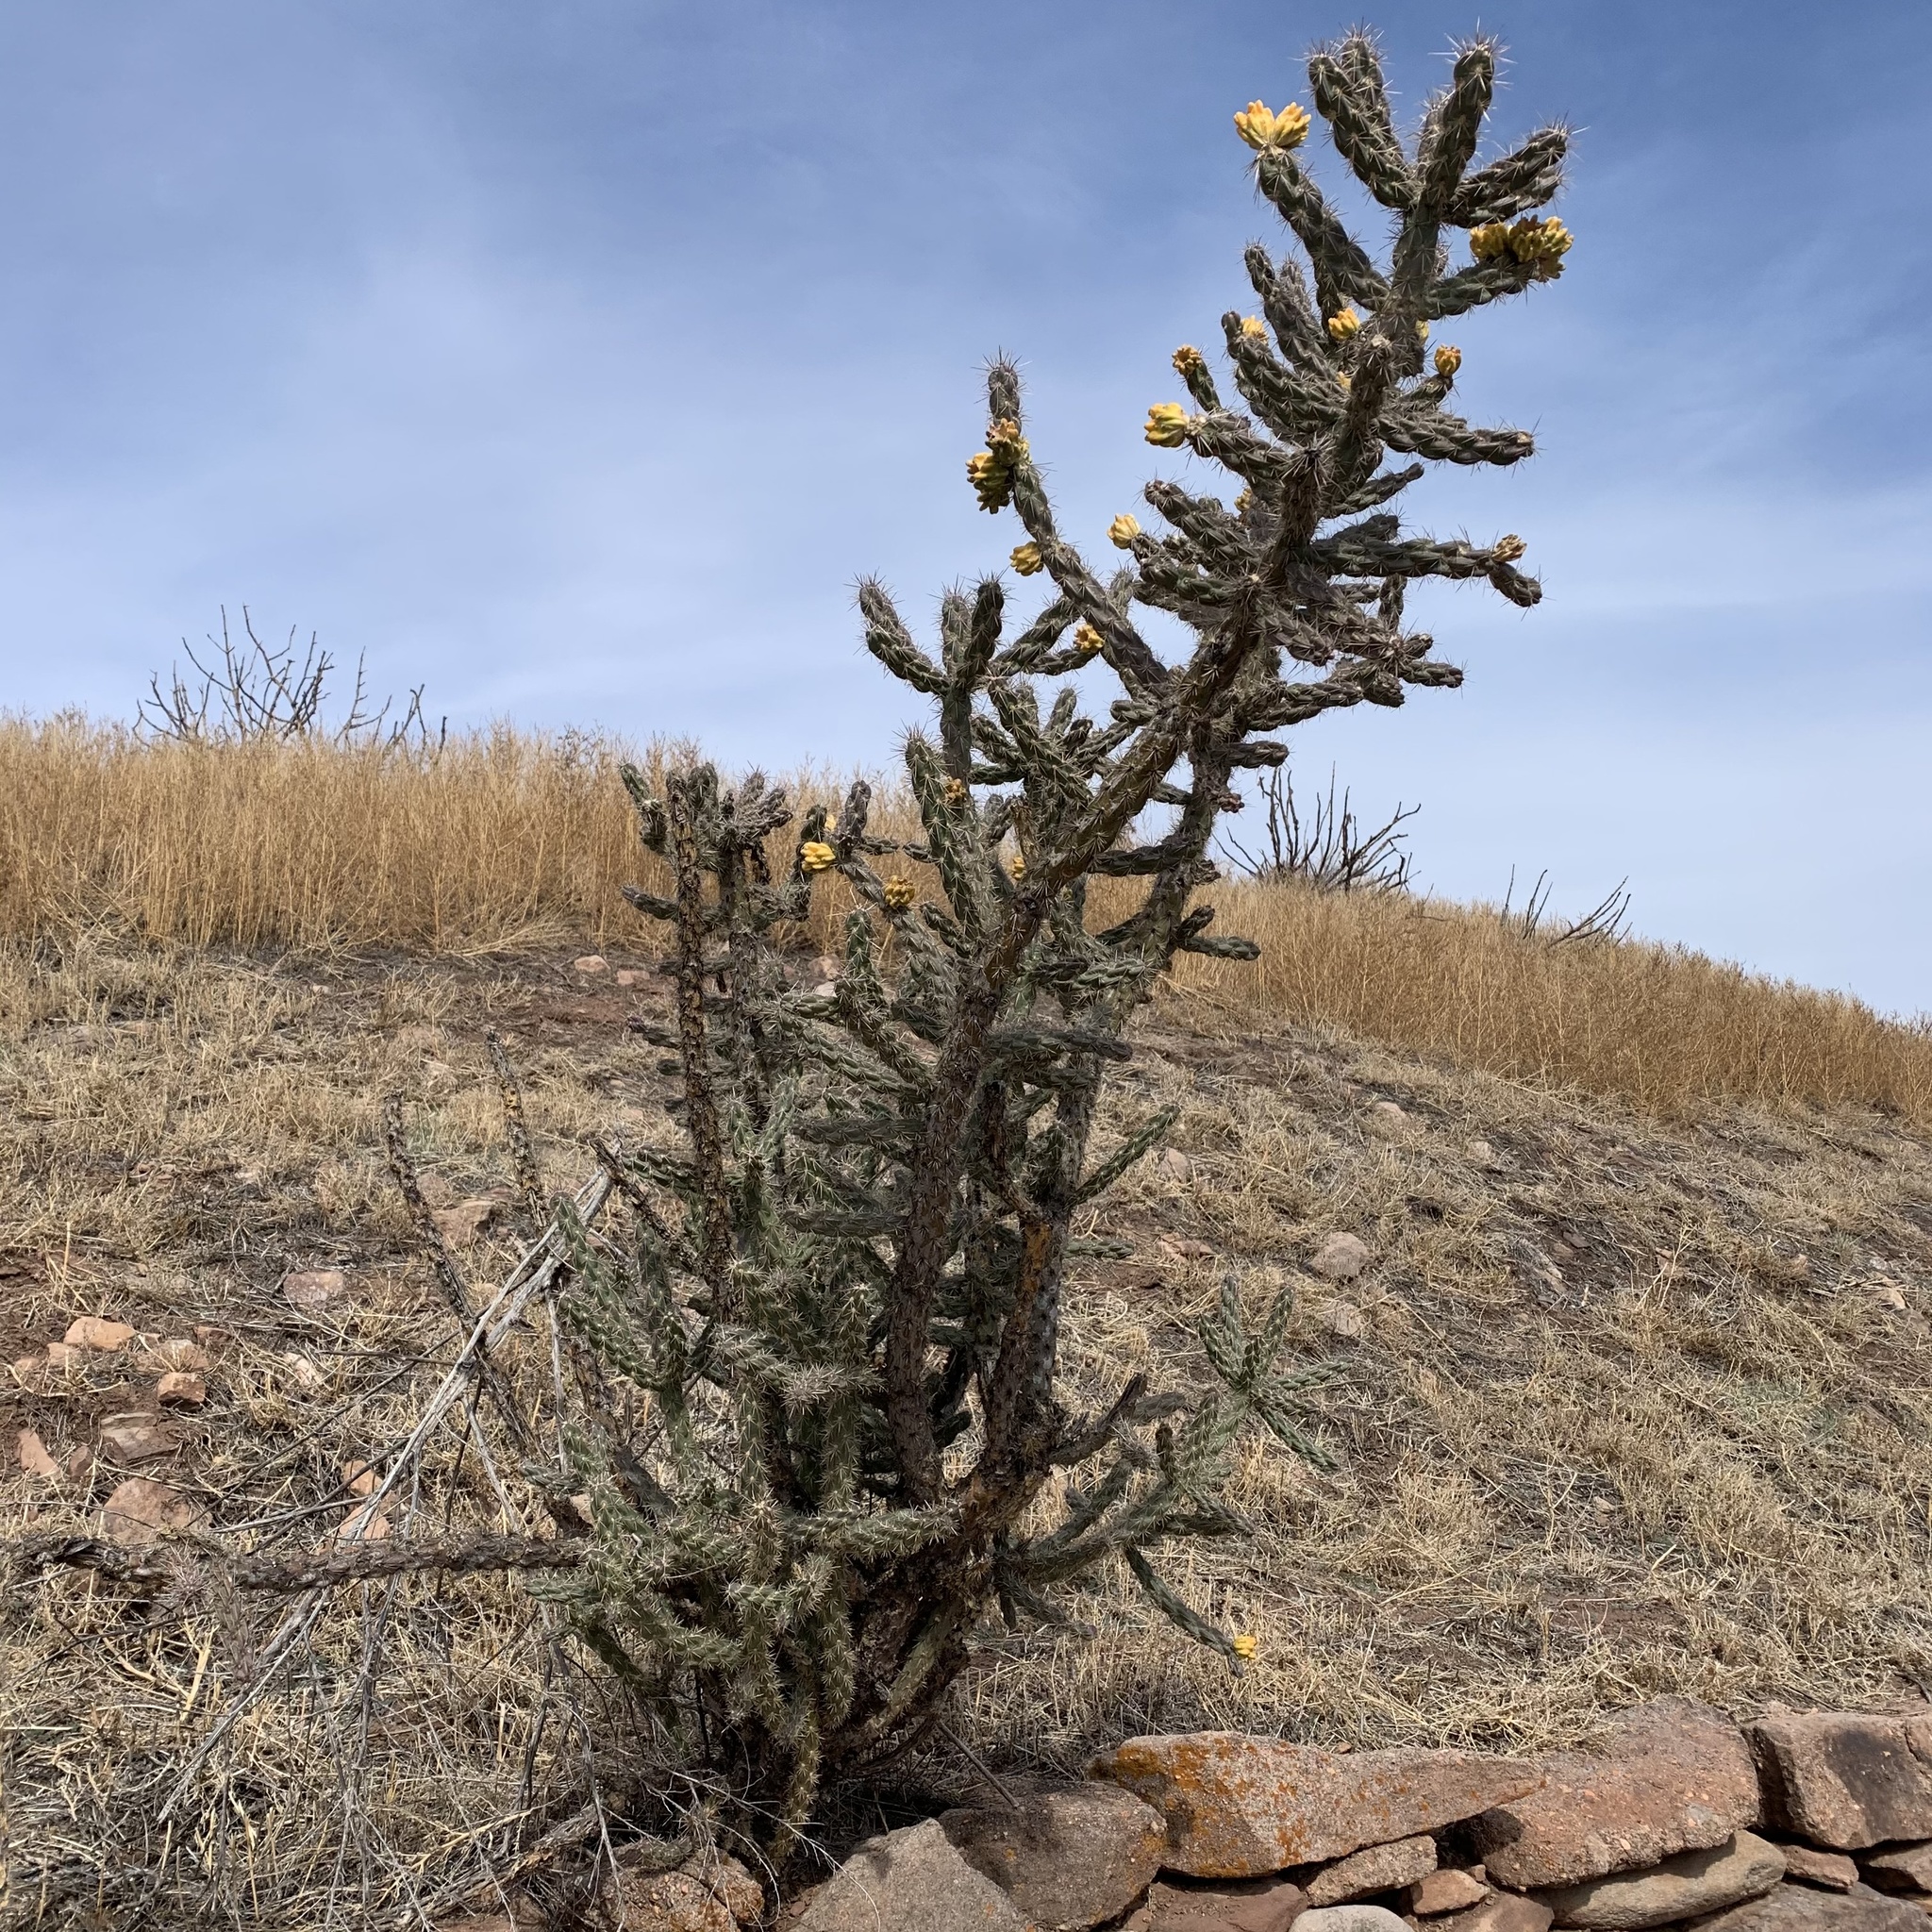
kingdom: Plantae
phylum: Tracheophyta
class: Magnoliopsida
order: Caryophyllales
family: Cactaceae
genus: Cylindropuntia
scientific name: Cylindropuntia imbricata
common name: Candelabrum cactus
